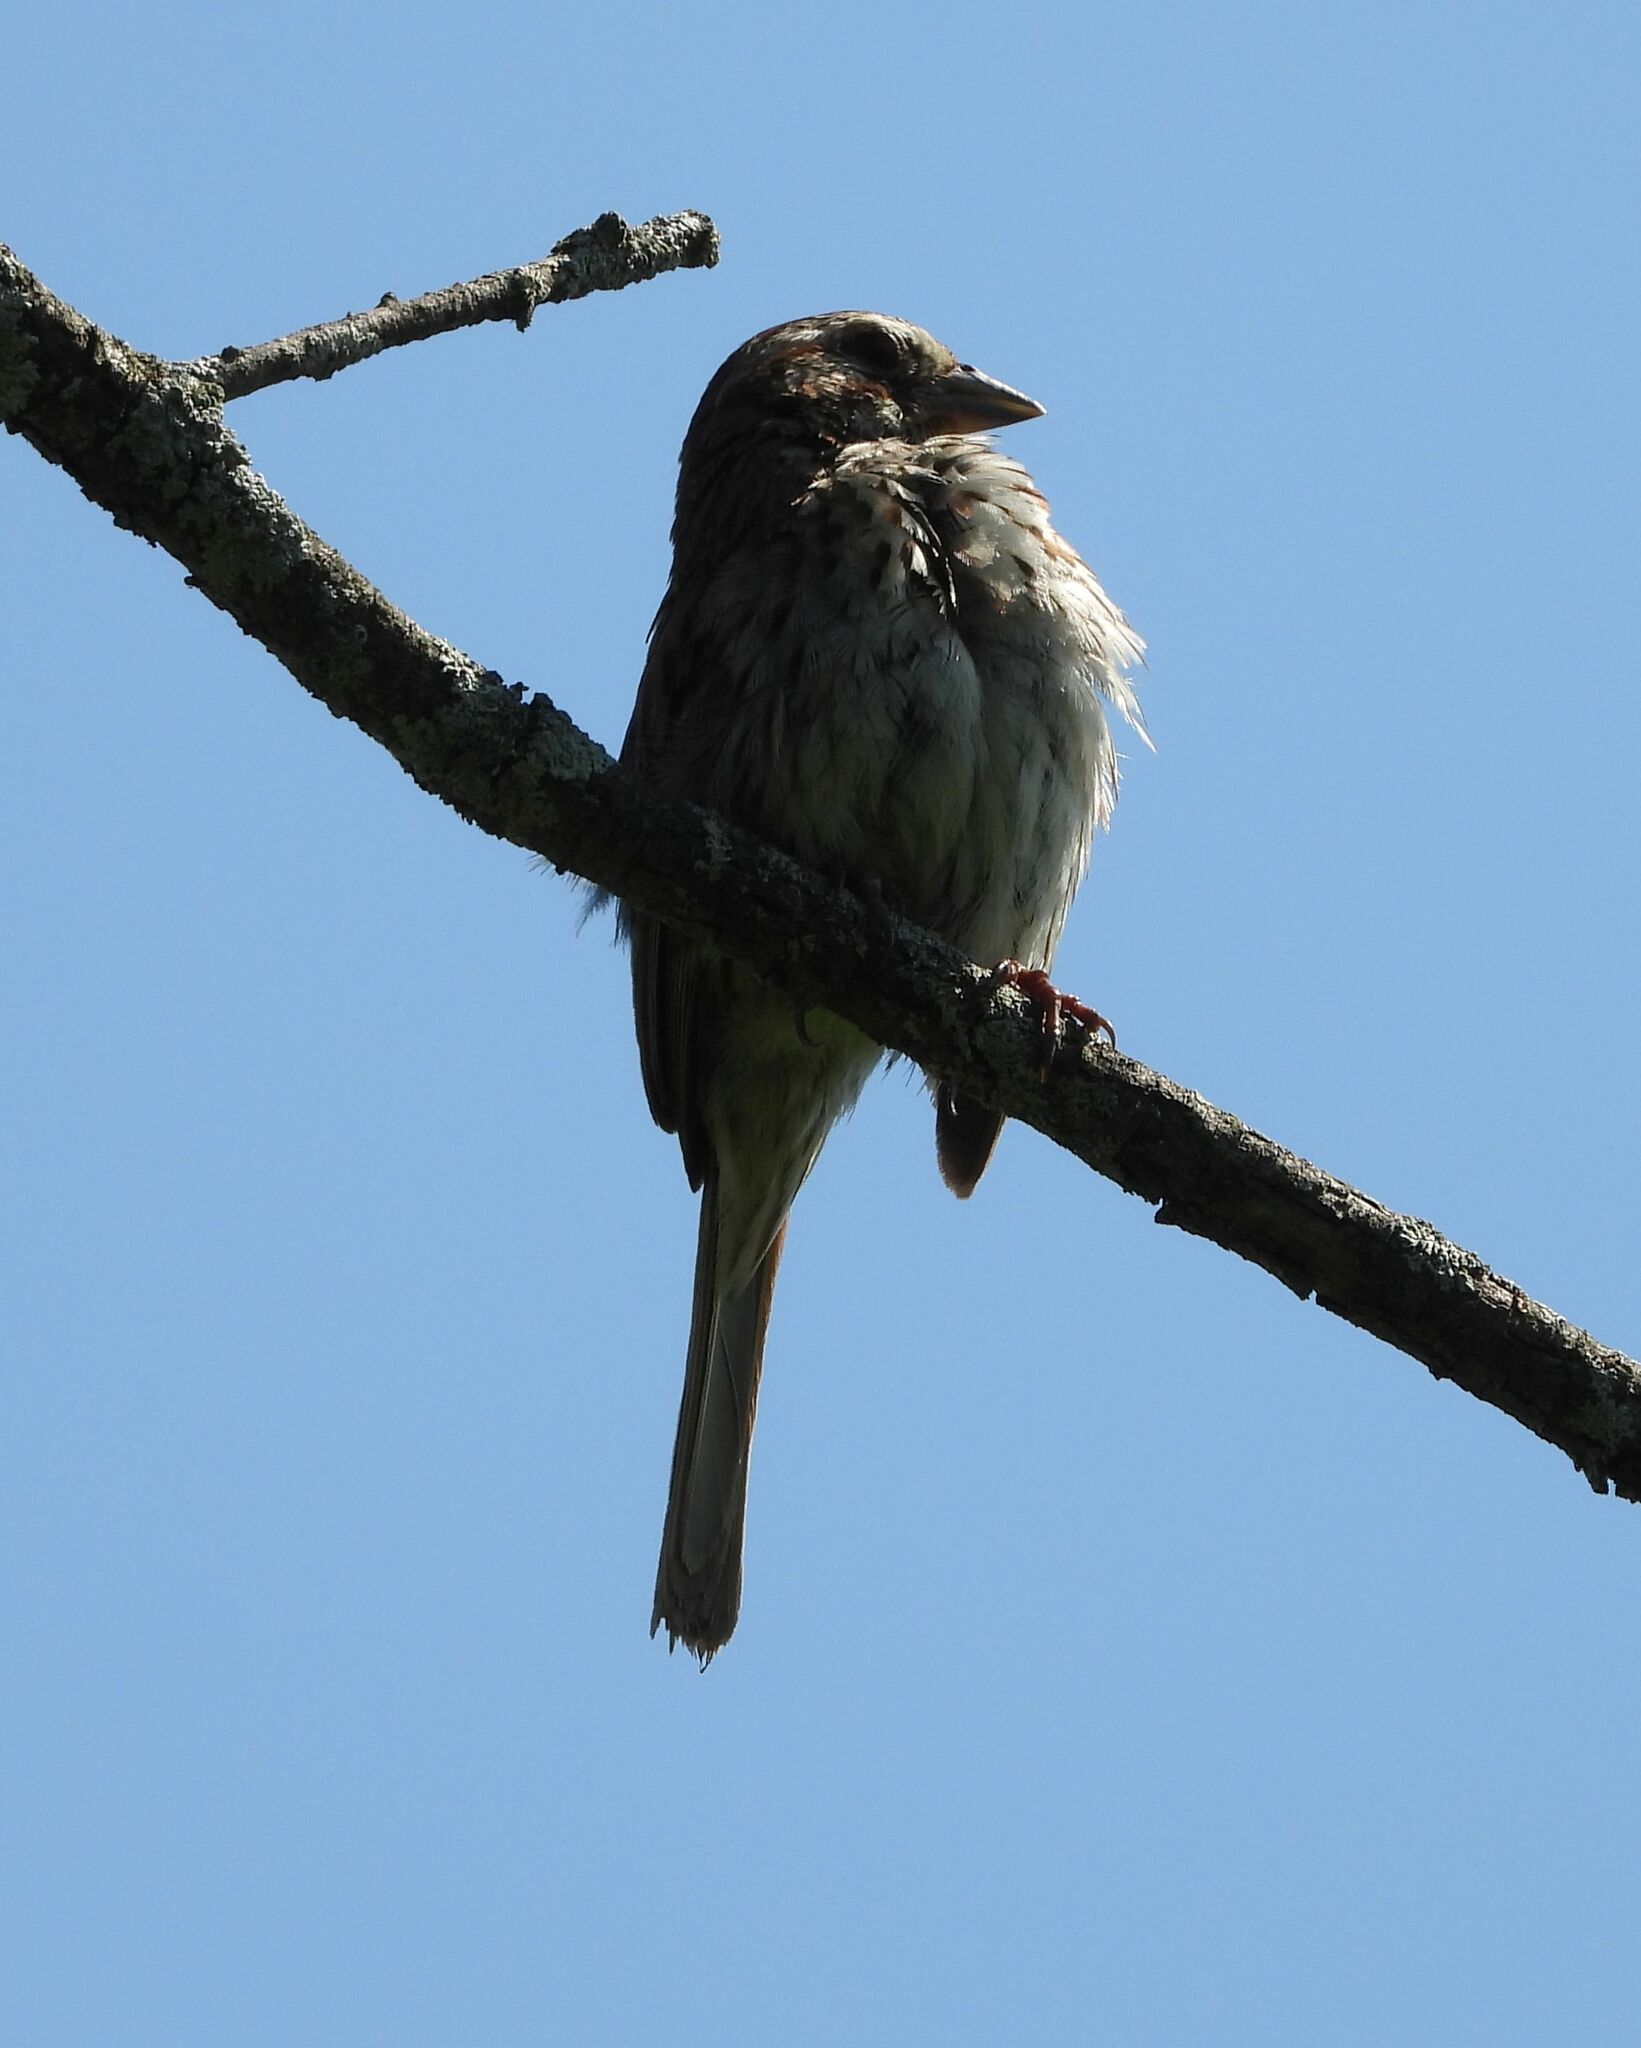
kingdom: Animalia
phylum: Chordata
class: Aves
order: Passeriformes
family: Passerellidae
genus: Melospiza
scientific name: Melospiza melodia
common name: Song sparrow
